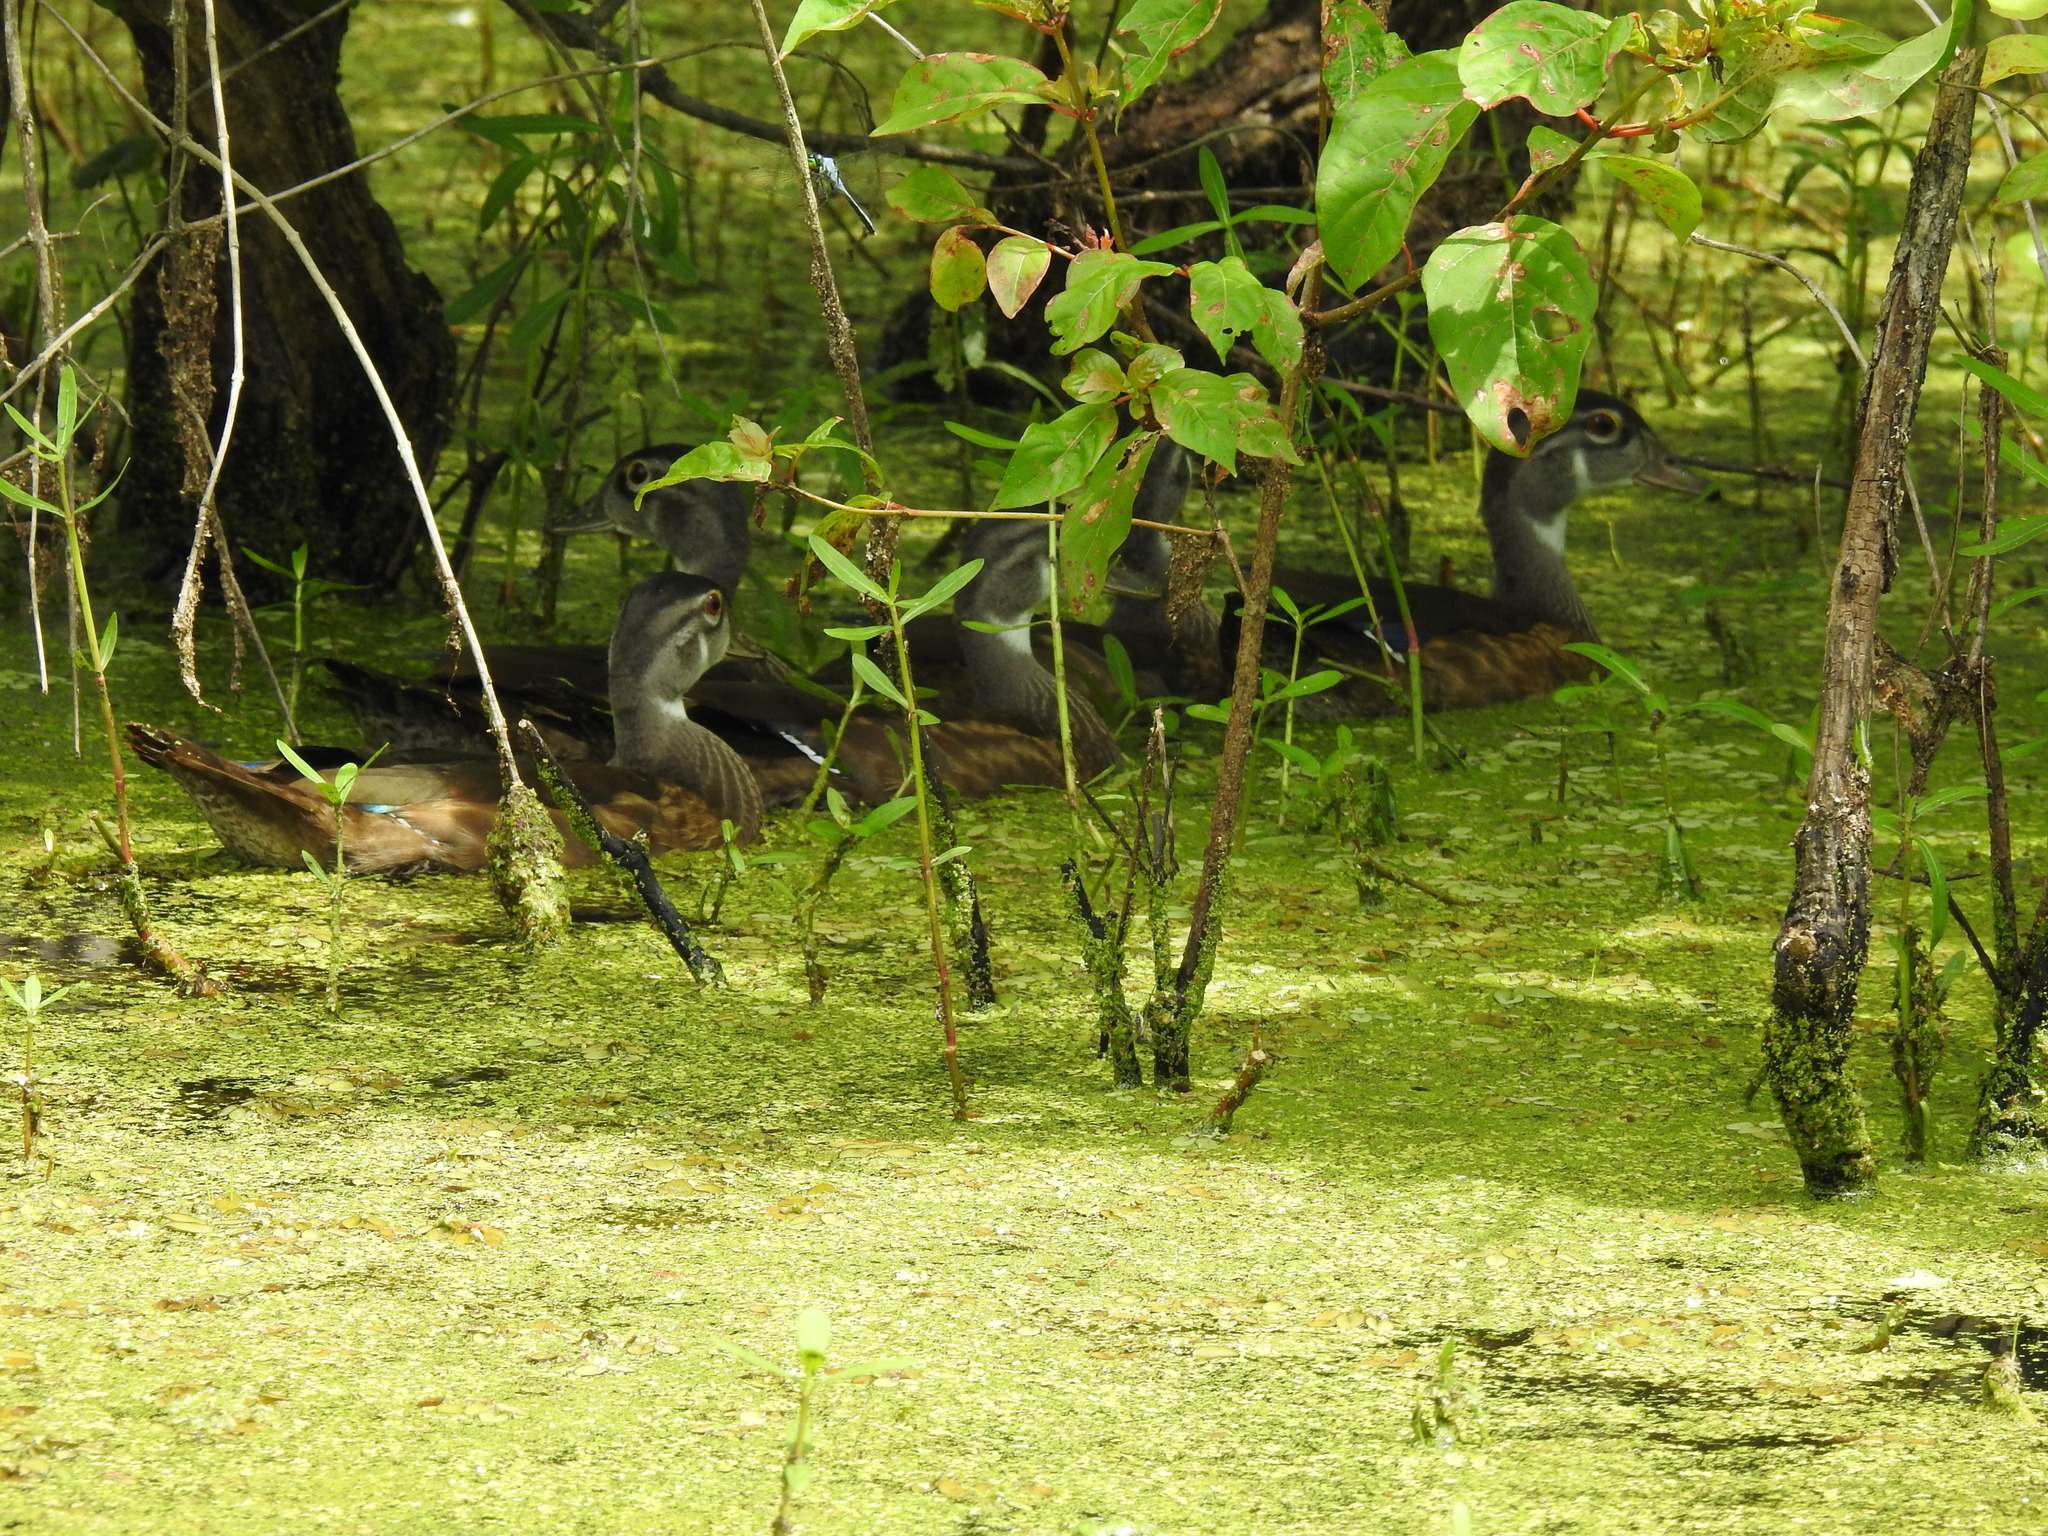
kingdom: Animalia
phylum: Chordata
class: Aves
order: Anseriformes
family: Anatidae
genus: Aix
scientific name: Aix sponsa
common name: Wood duck
